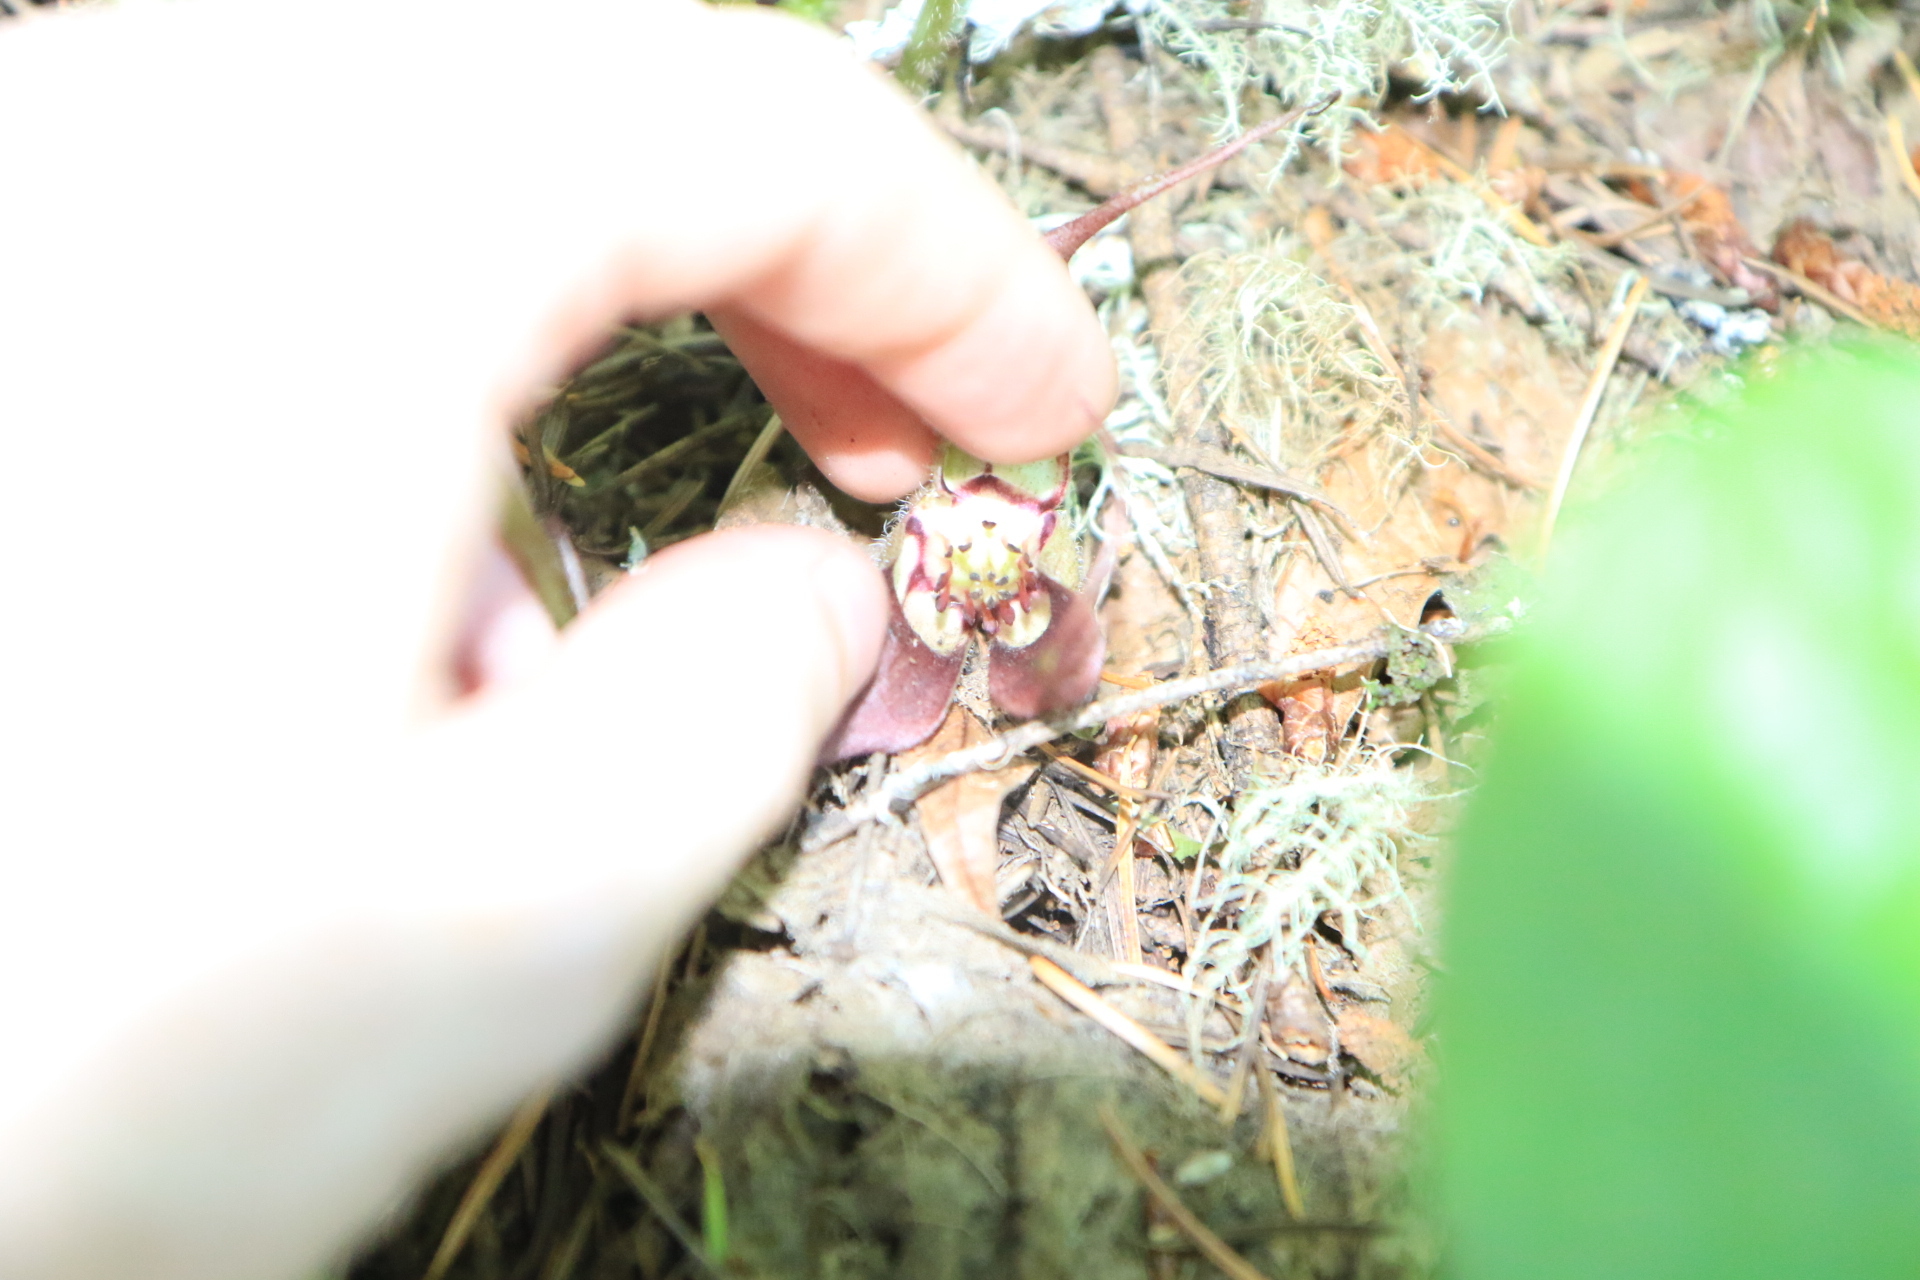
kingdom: Plantae
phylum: Tracheophyta
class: Magnoliopsida
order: Piperales
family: Aristolochiaceae
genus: Asarum
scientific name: Asarum caudatum
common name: Wild ginger
